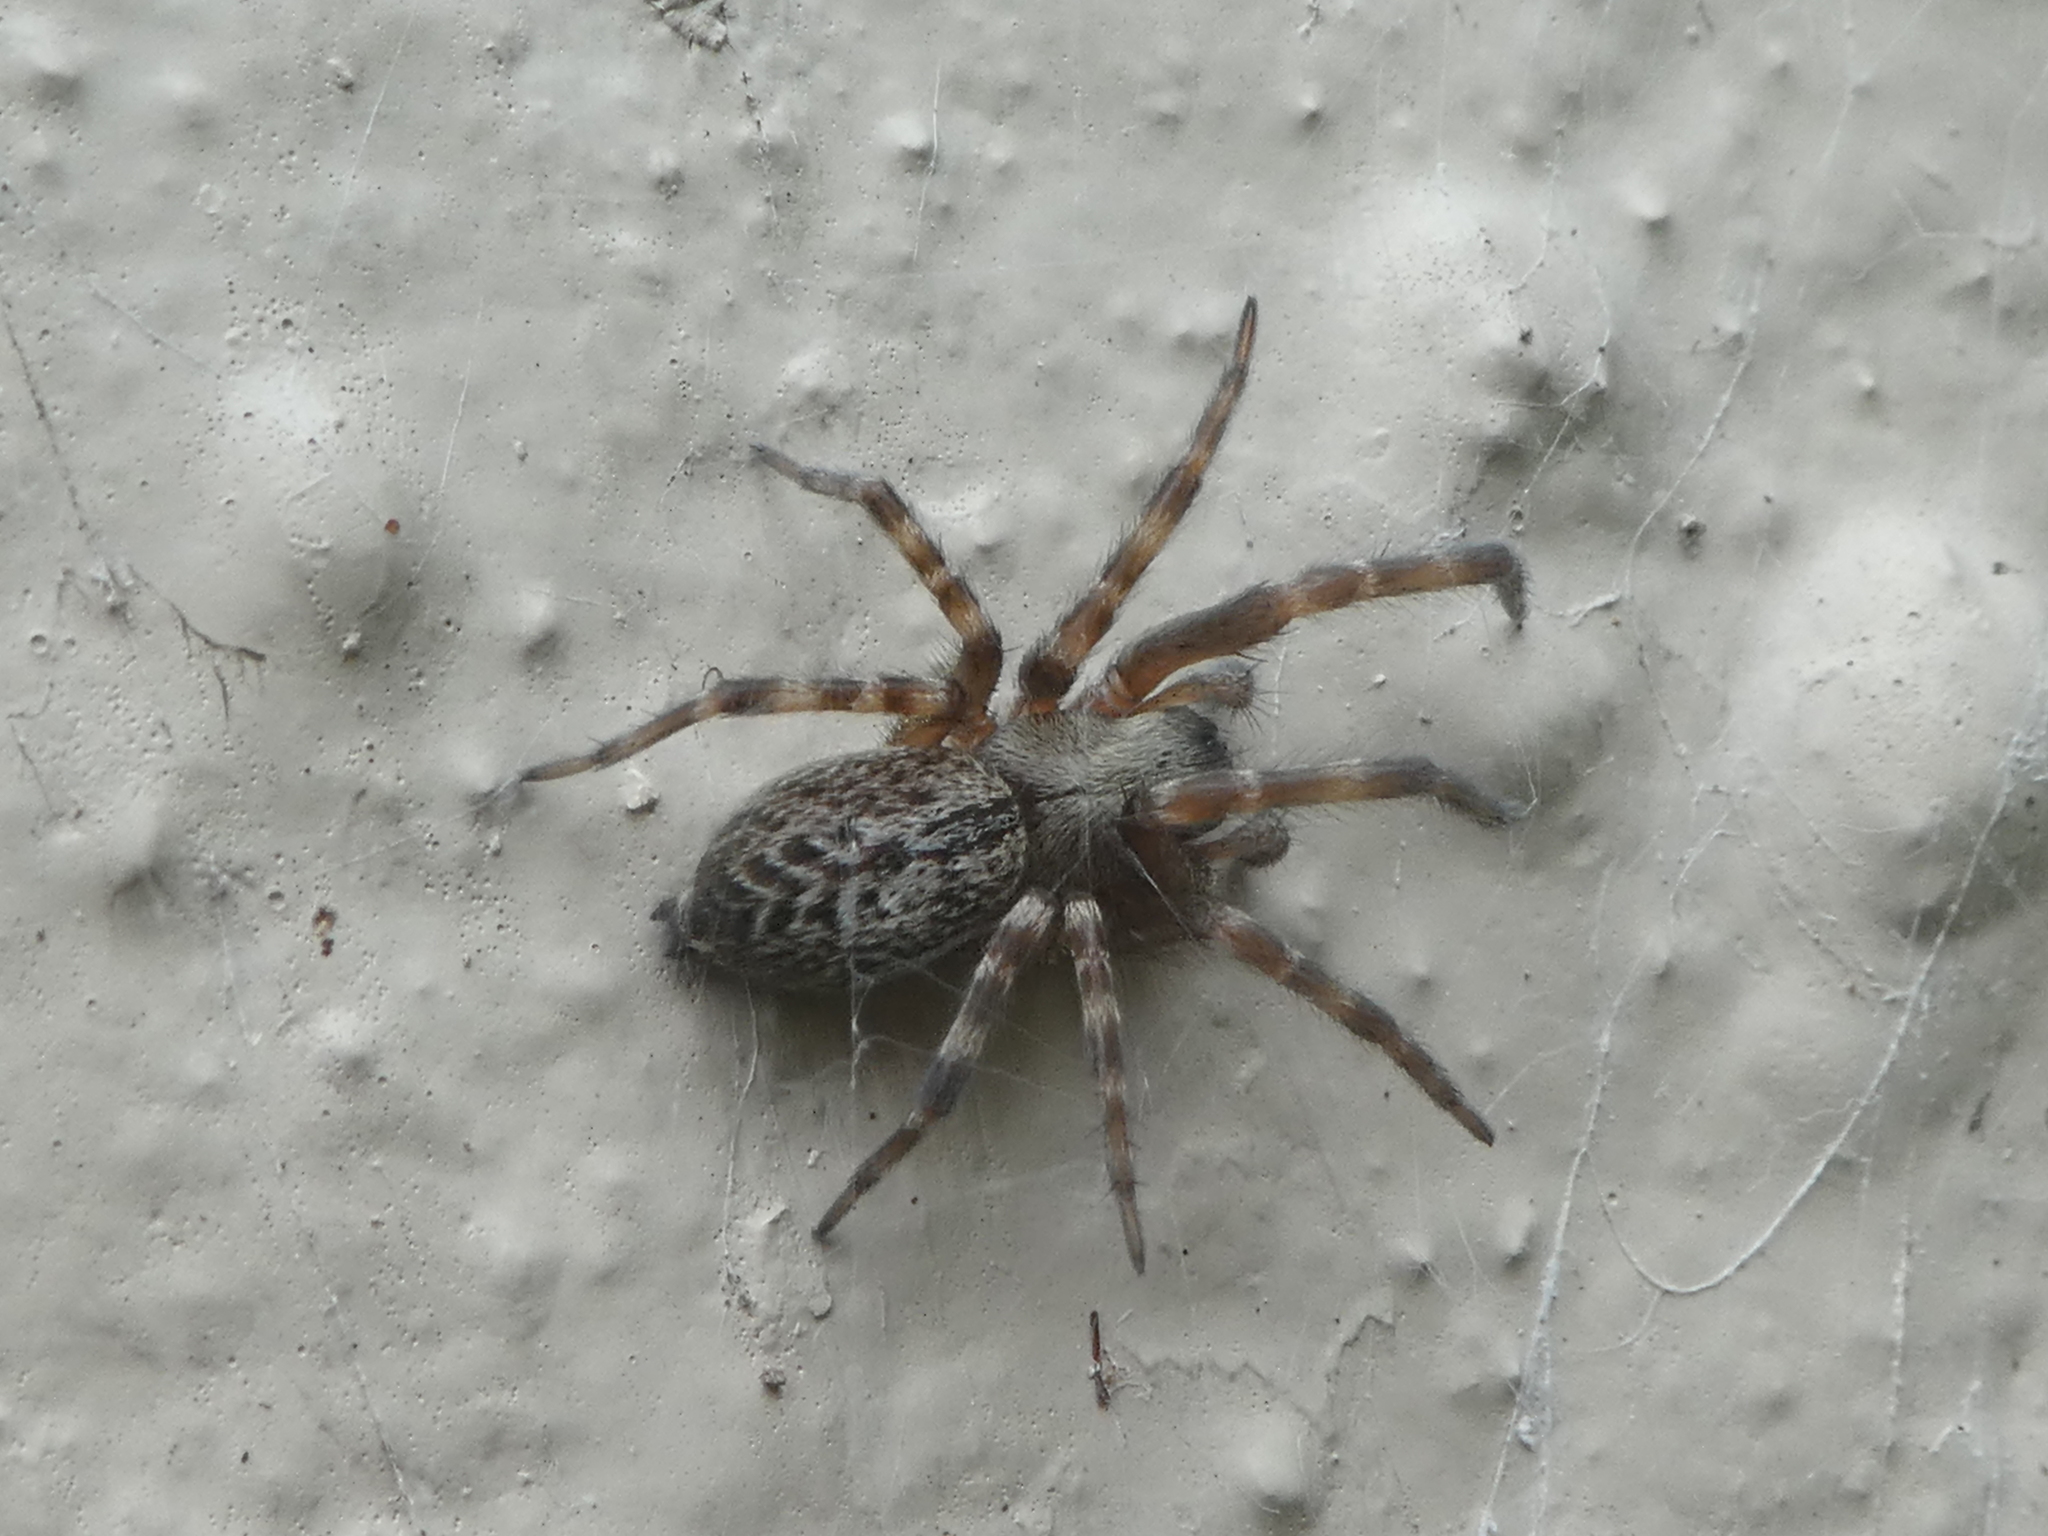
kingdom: Animalia
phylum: Arthropoda
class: Arachnida
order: Araneae
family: Desidae
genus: Badumna
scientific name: Badumna longinqua
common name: Gray house spider
